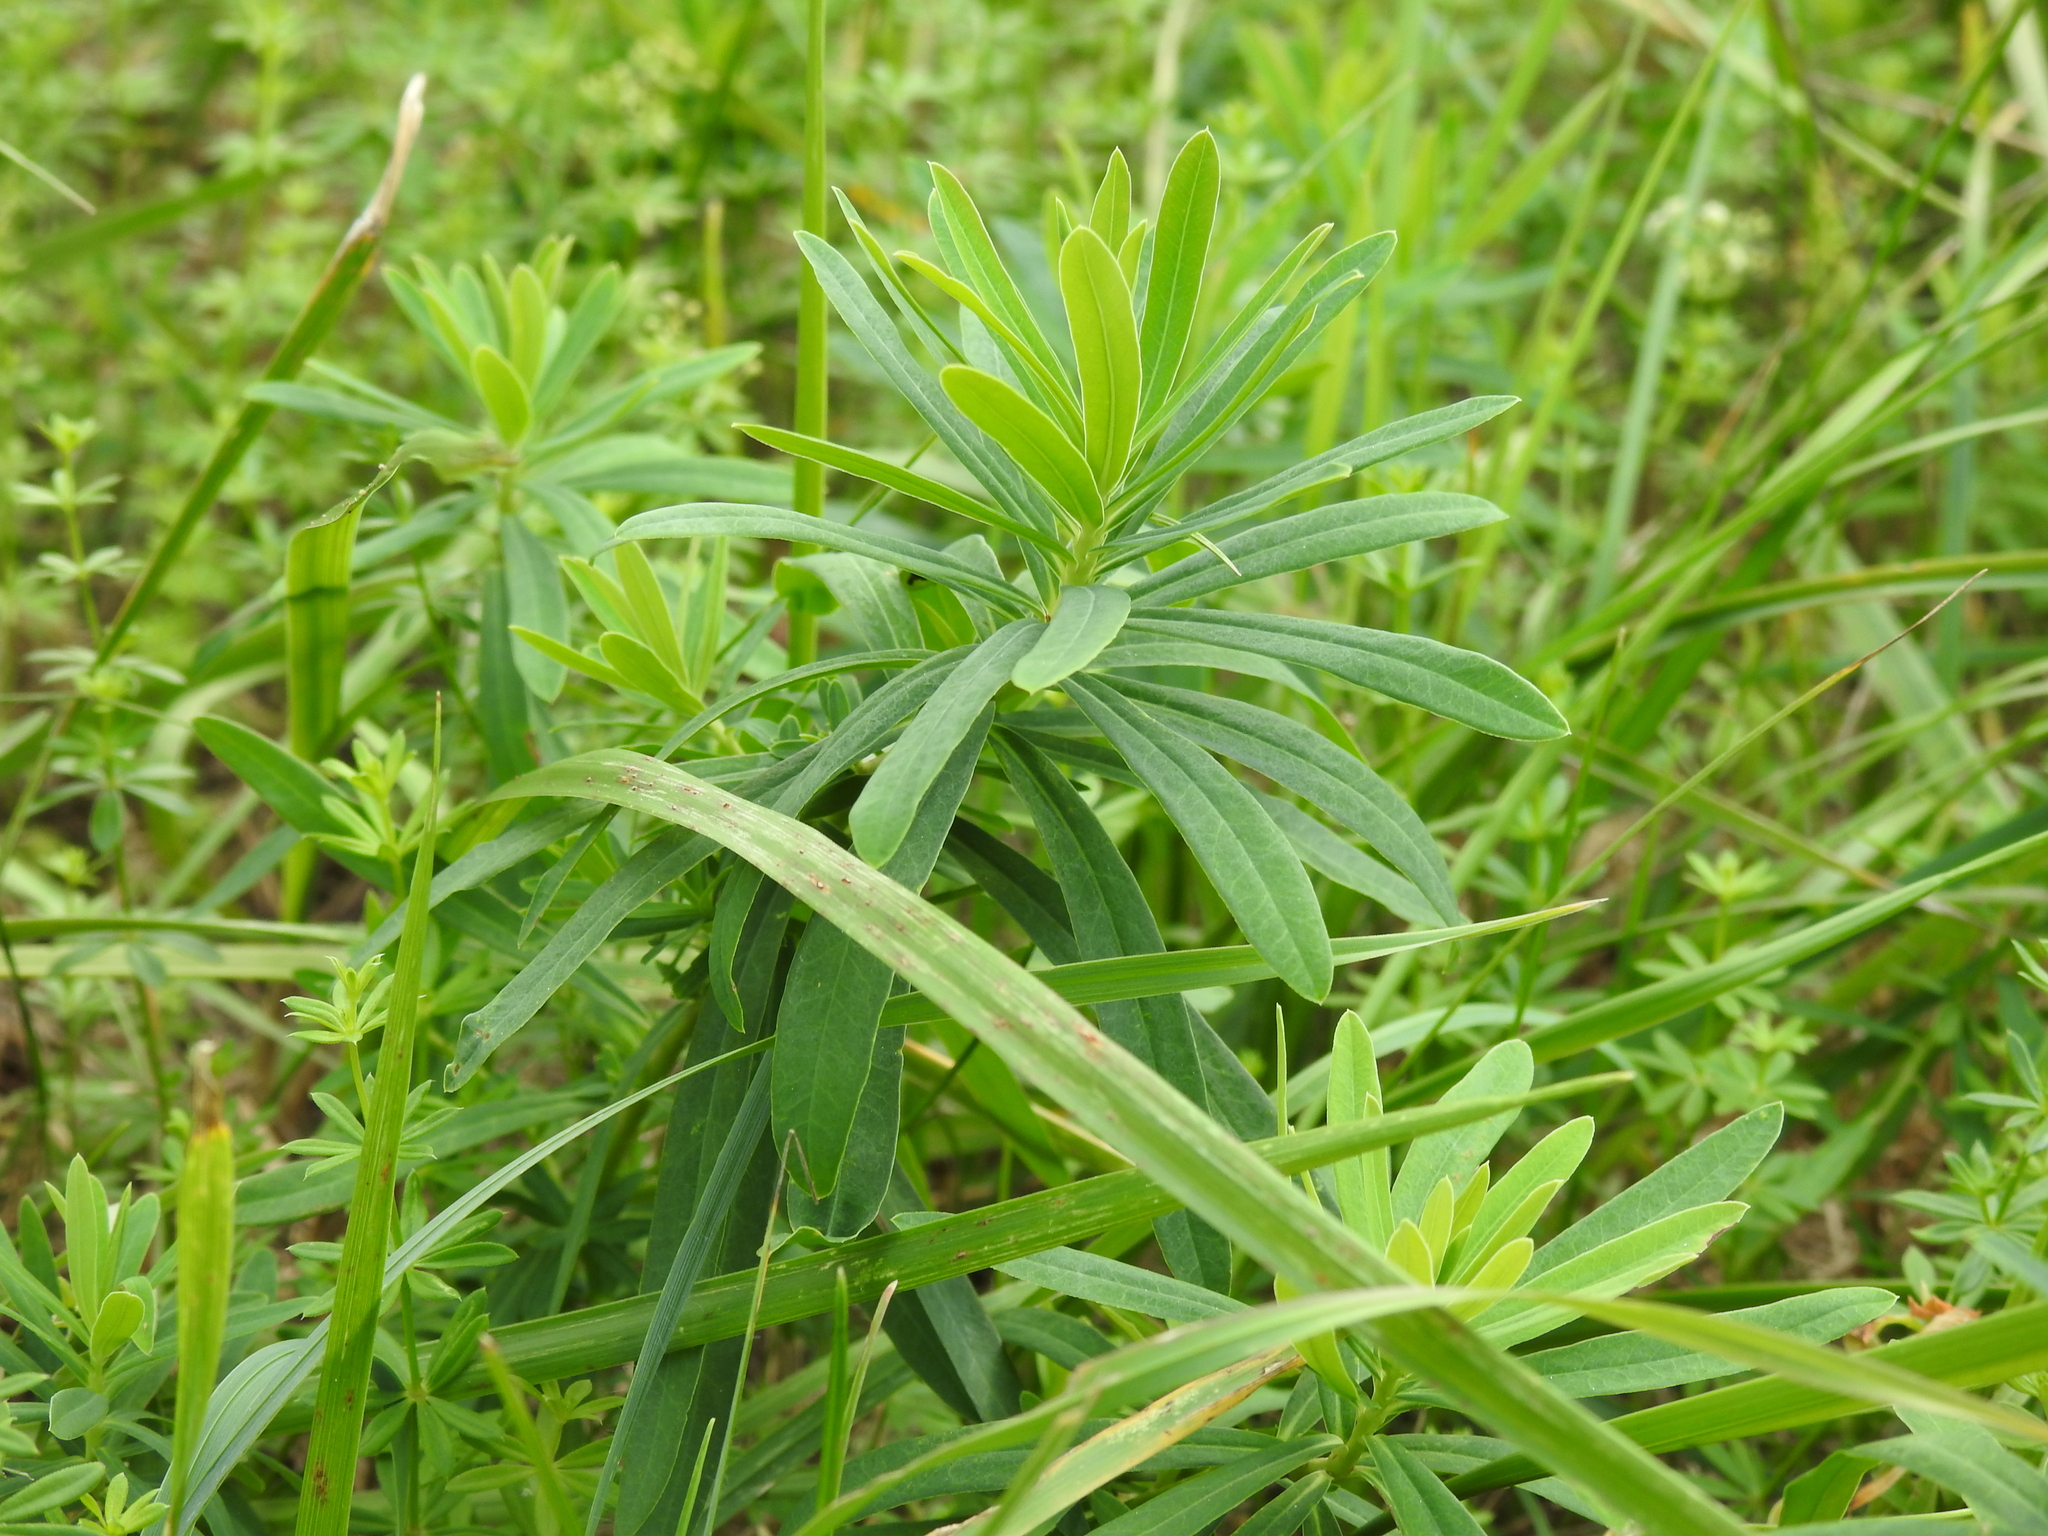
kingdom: Plantae
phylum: Tracheophyta
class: Magnoliopsida
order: Malpighiales
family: Euphorbiaceae
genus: Euphorbia
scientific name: Euphorbia esula
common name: Leafy spurge
